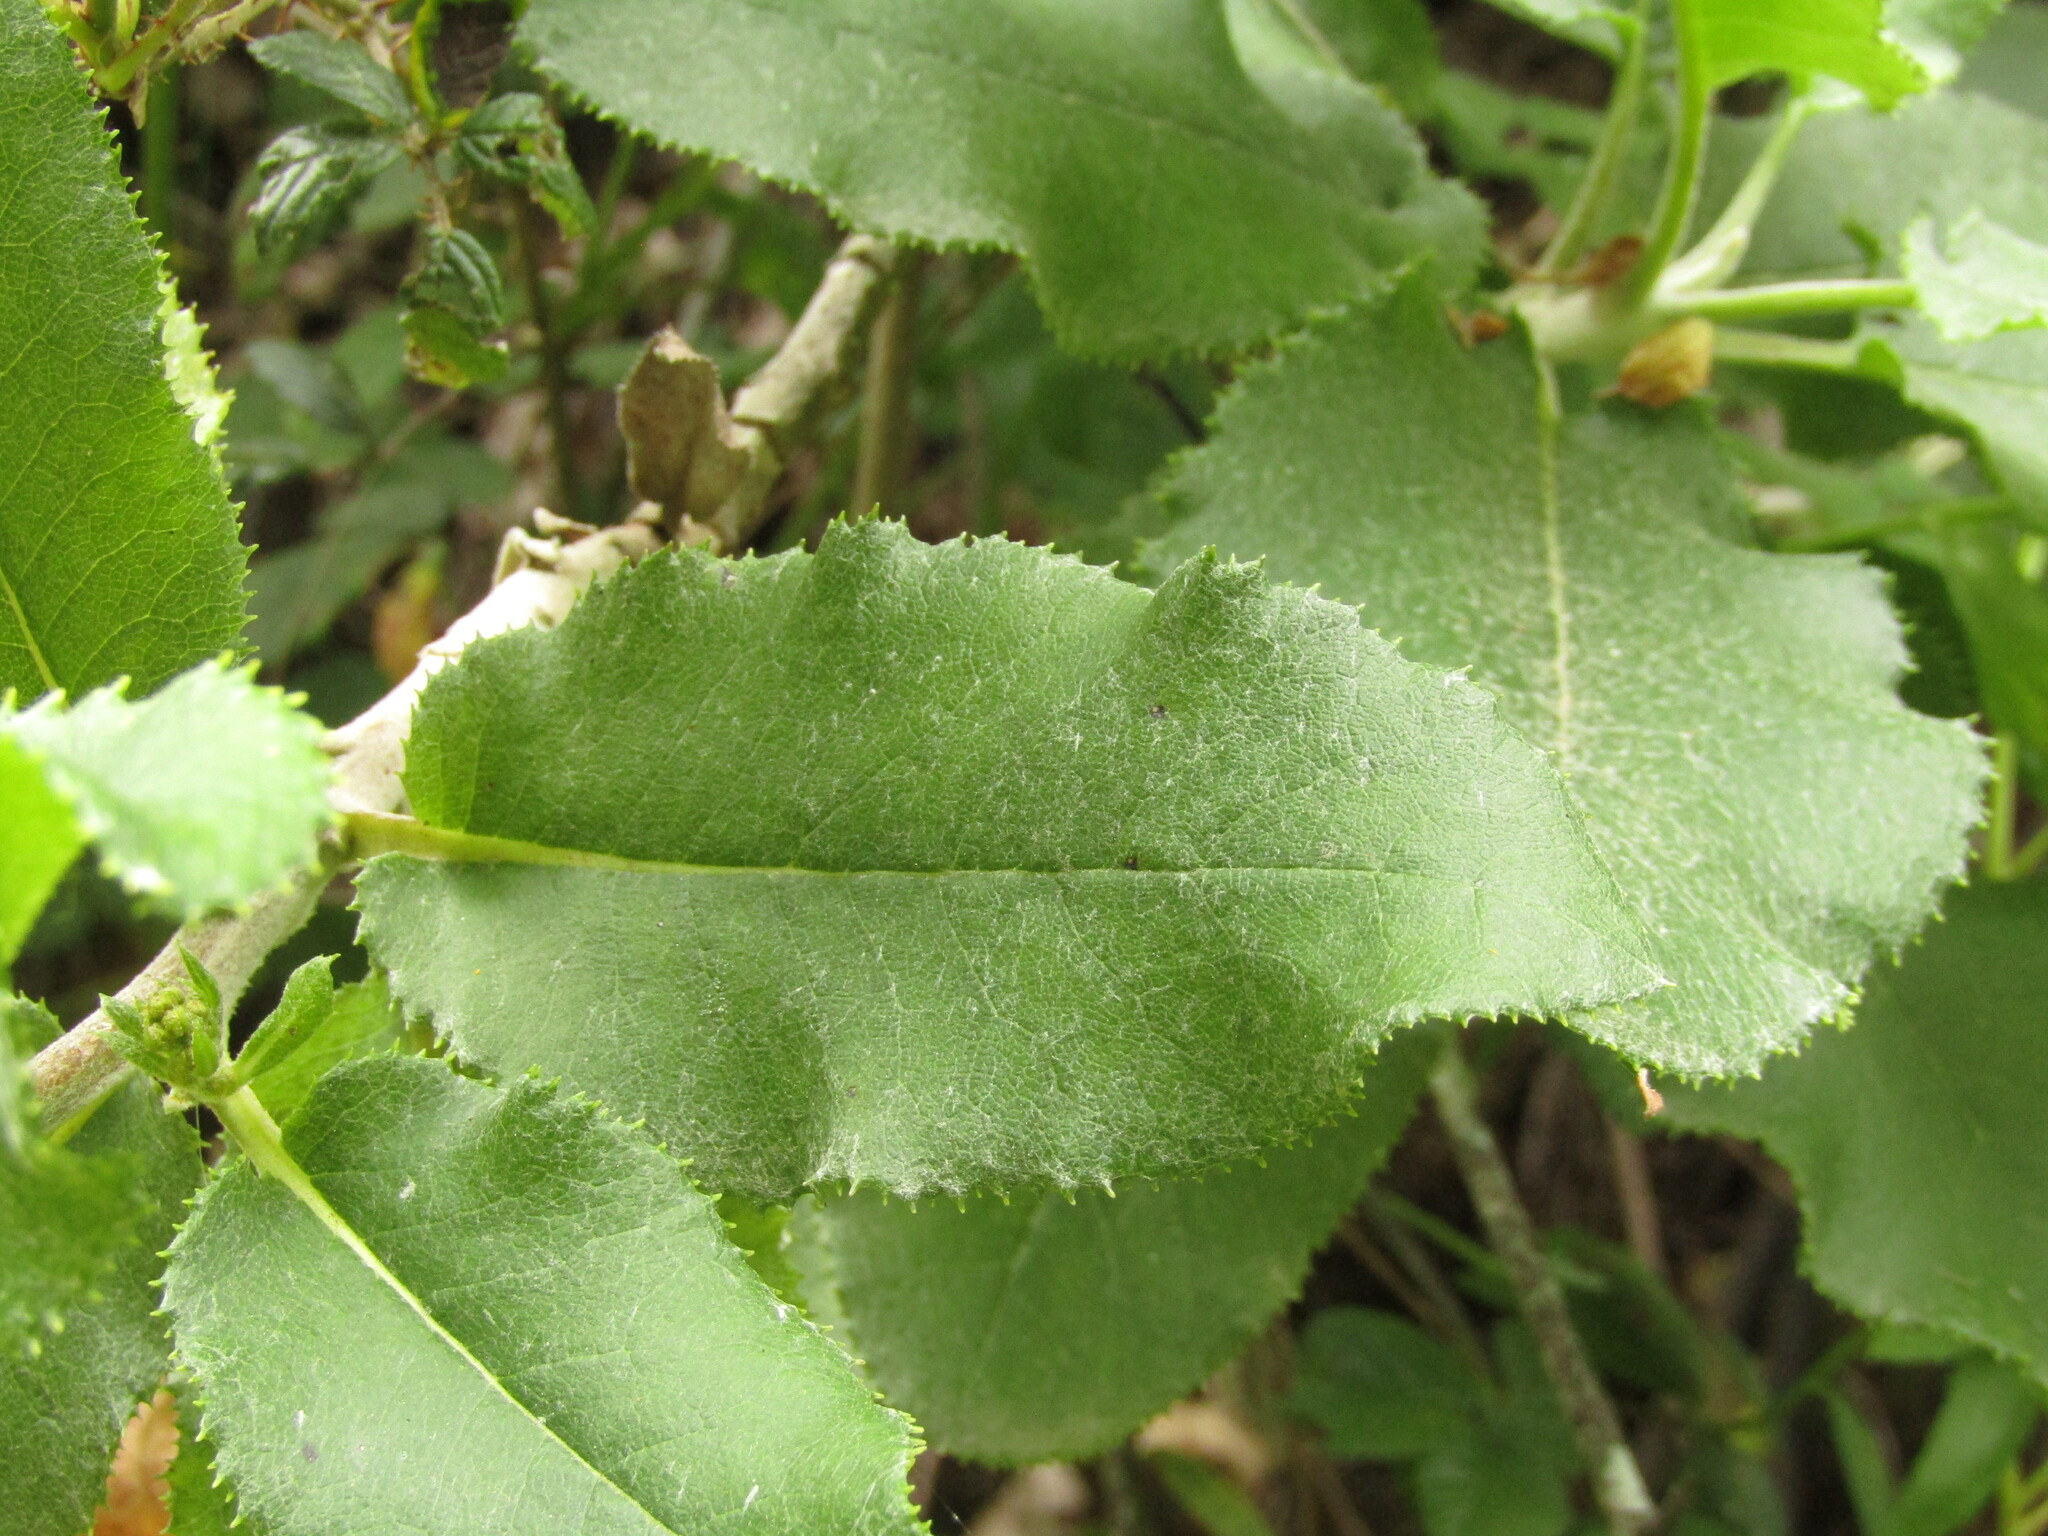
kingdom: Plantae
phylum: Tracheophyta
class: Magnoliopsida
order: Asterales
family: Asteraceae
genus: Acrisione
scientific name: Acrisione denticulata
